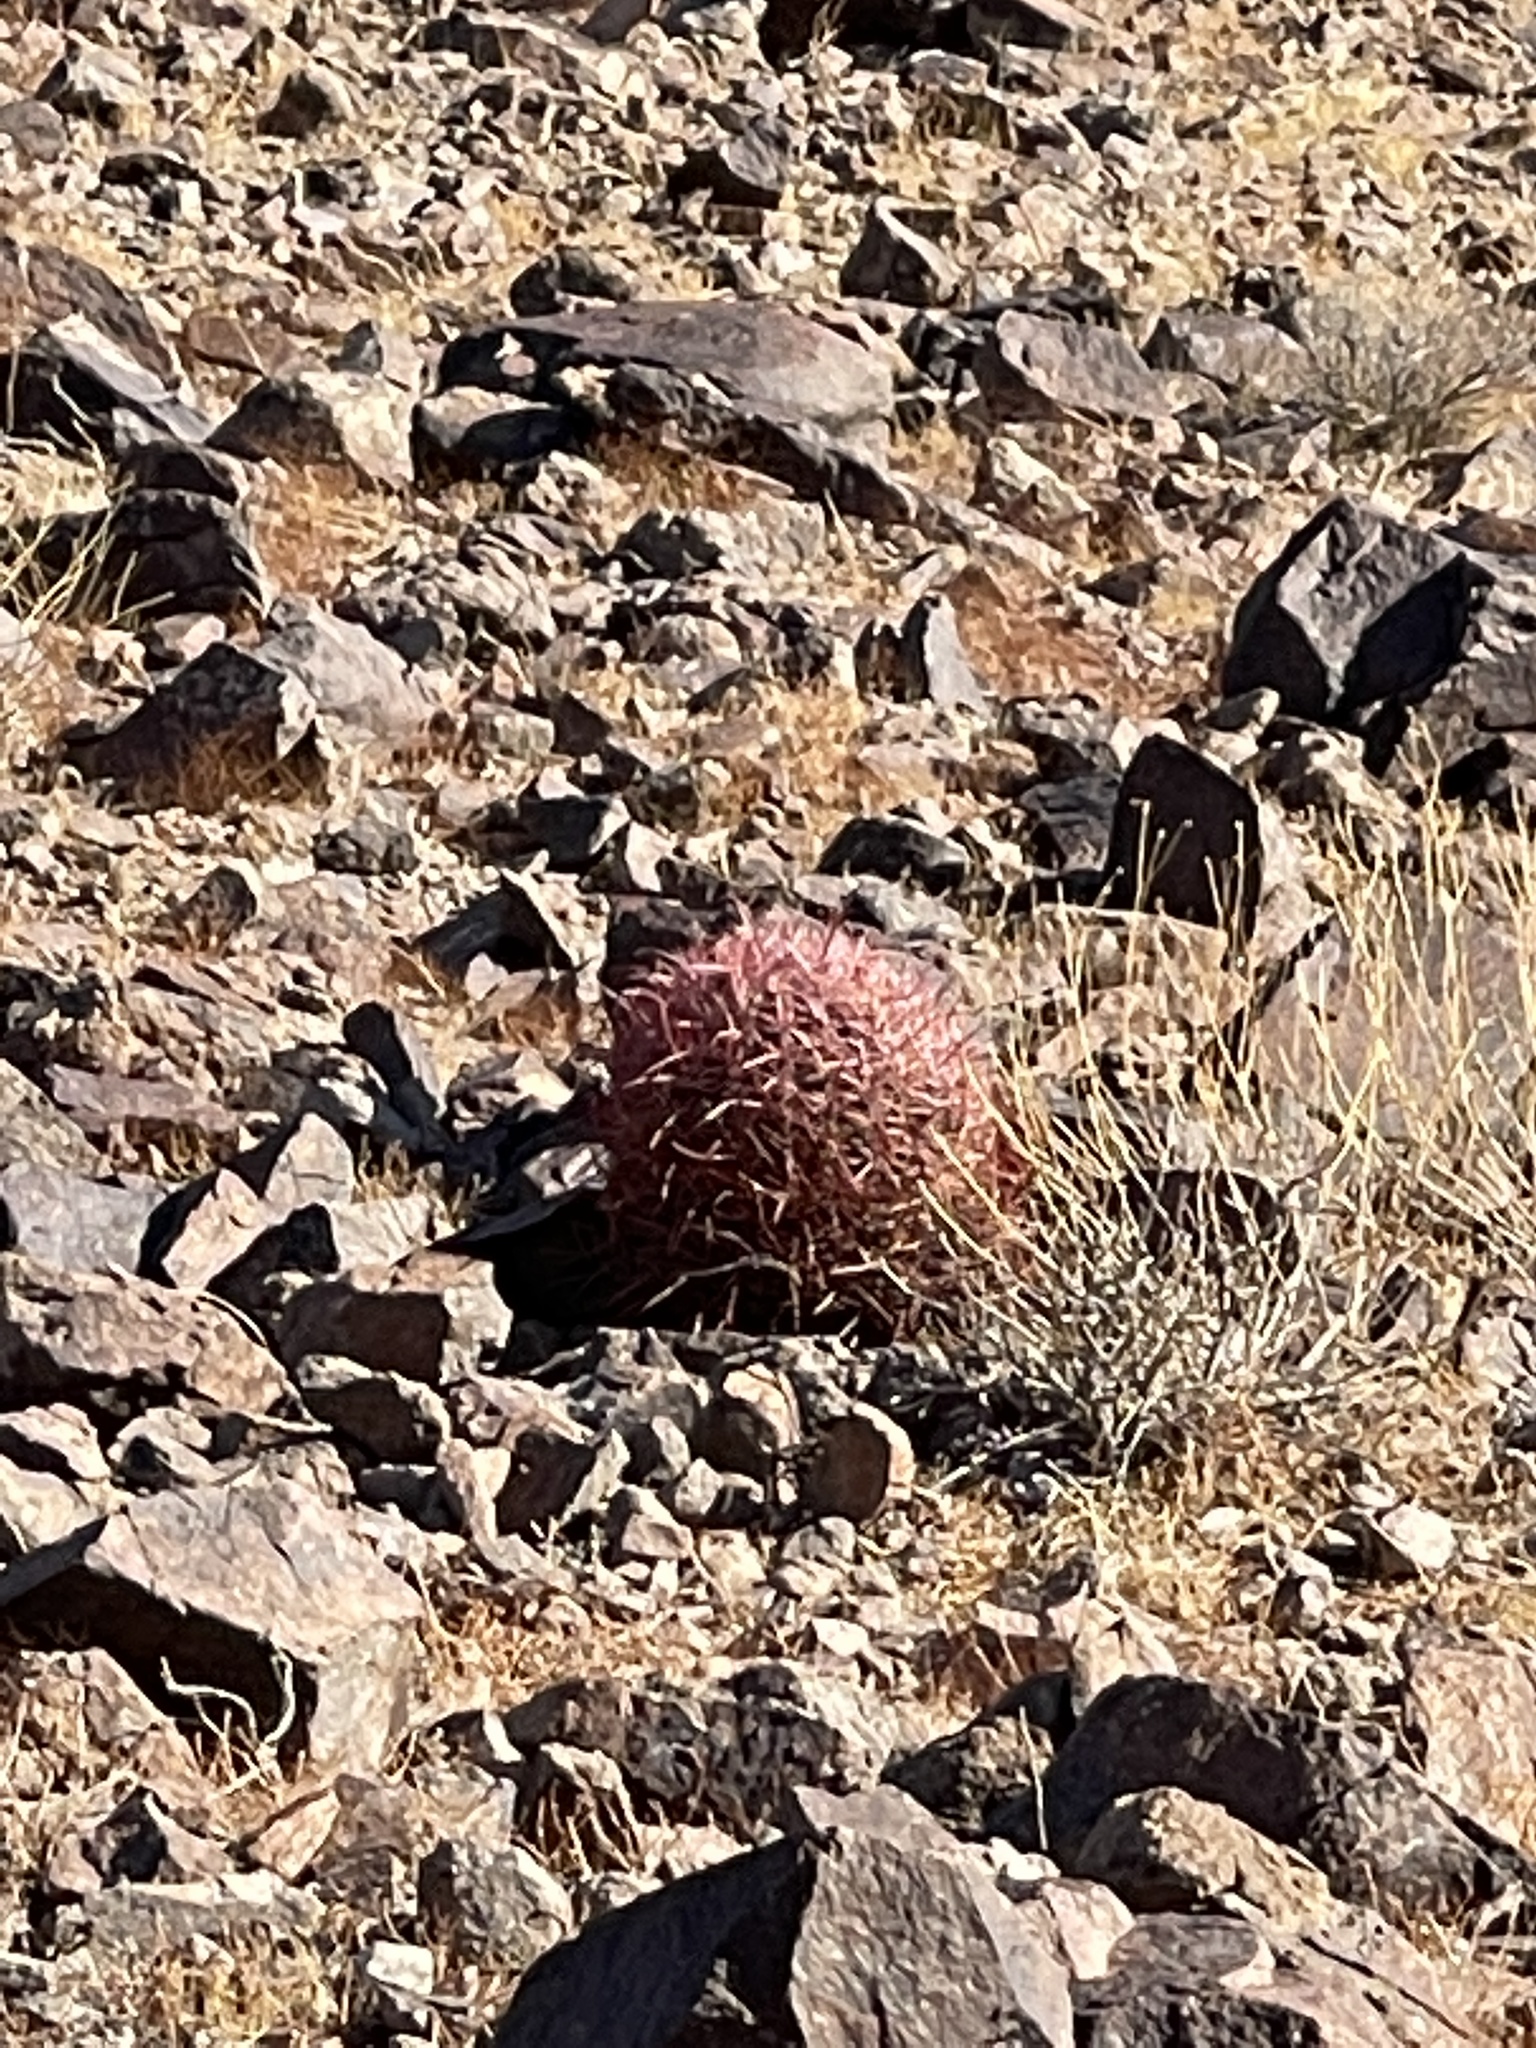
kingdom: Plantae
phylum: Tracheophyta
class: Magnoliopsida
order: Caryophyllales
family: Cactaceae
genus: Ferocactus
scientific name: Ferocactus cylindraceus
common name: California barrel cactus
